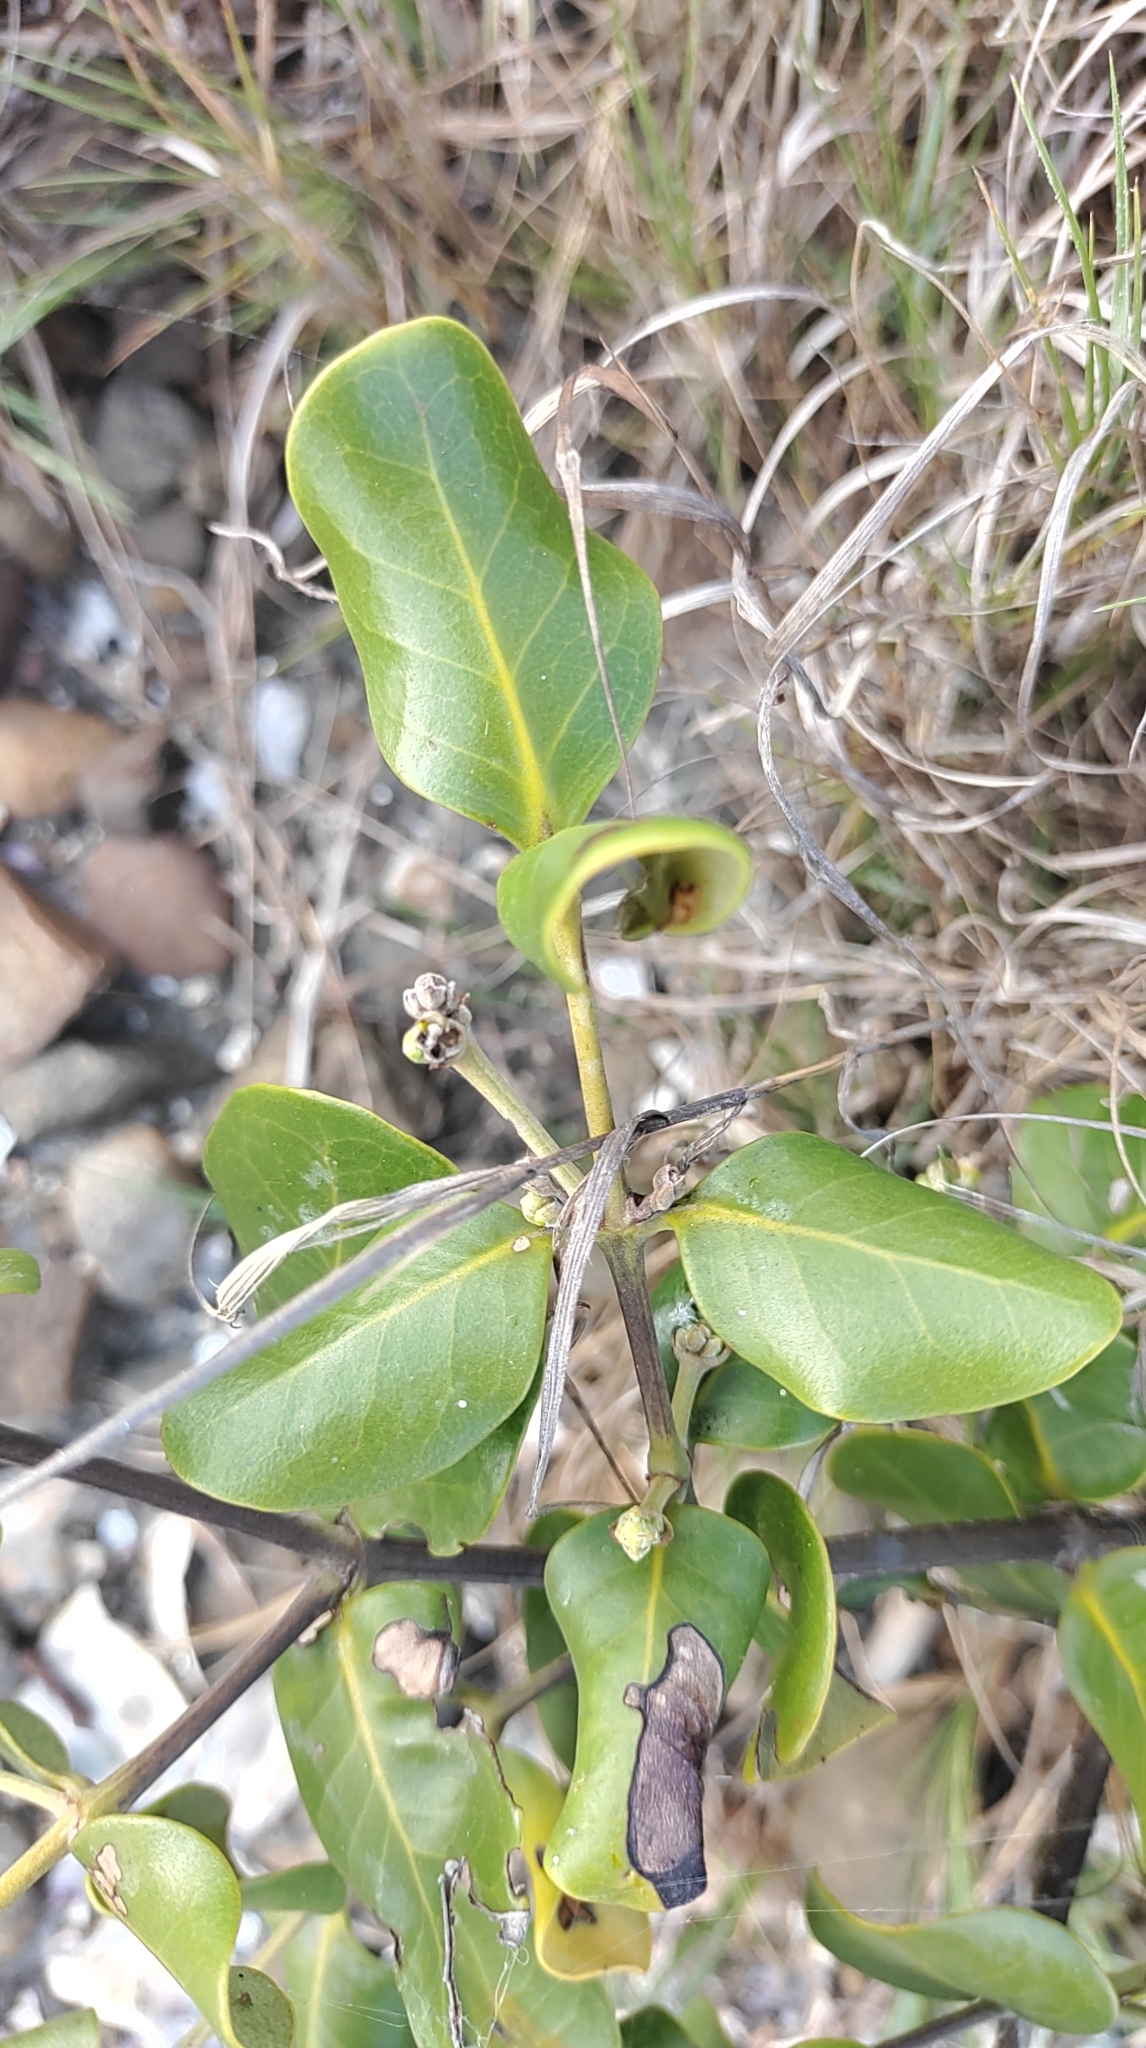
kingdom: Plantae
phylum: Tracheophyta
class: Magnoliopsida
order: Lamiales
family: Acanthaceae
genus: Avicennia
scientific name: Avicennia marina
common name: Gray mangrove
